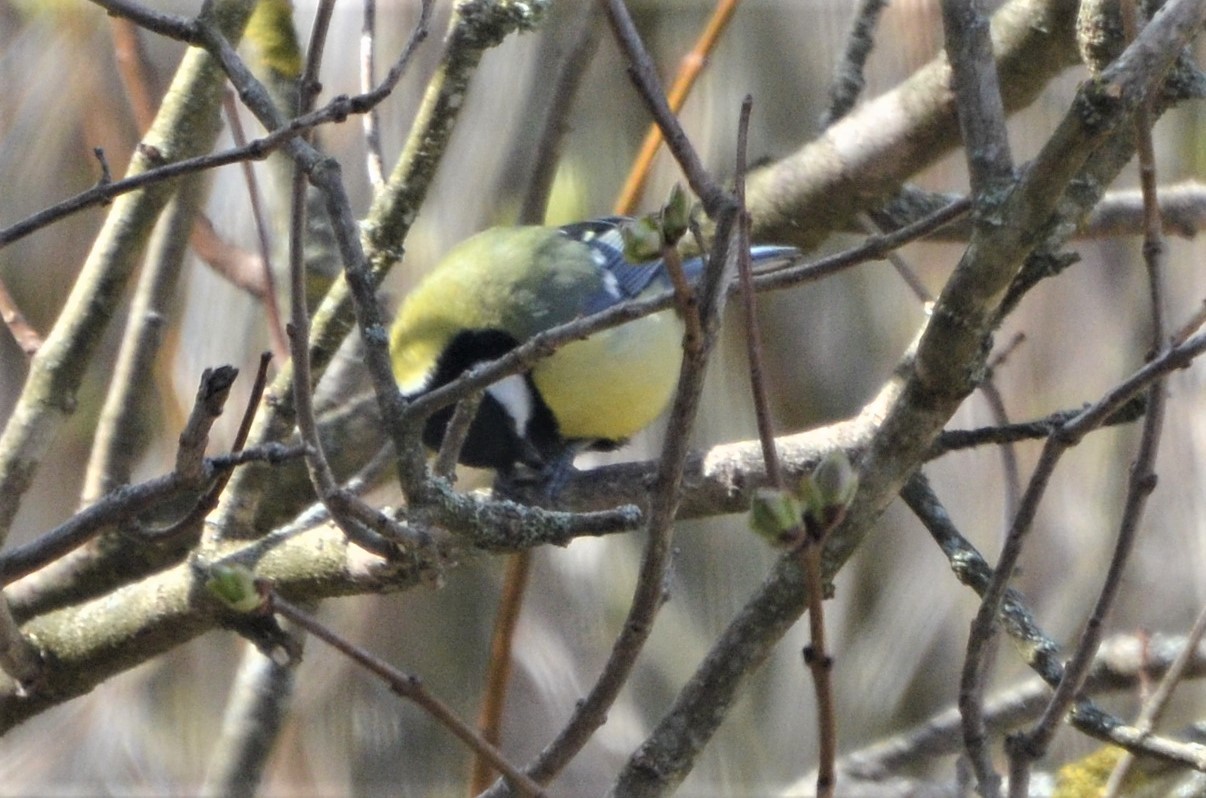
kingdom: Animalia
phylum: Chordata
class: Aves
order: Passeriformes
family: Paridae
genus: Parus
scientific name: Parus major
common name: Great tit
